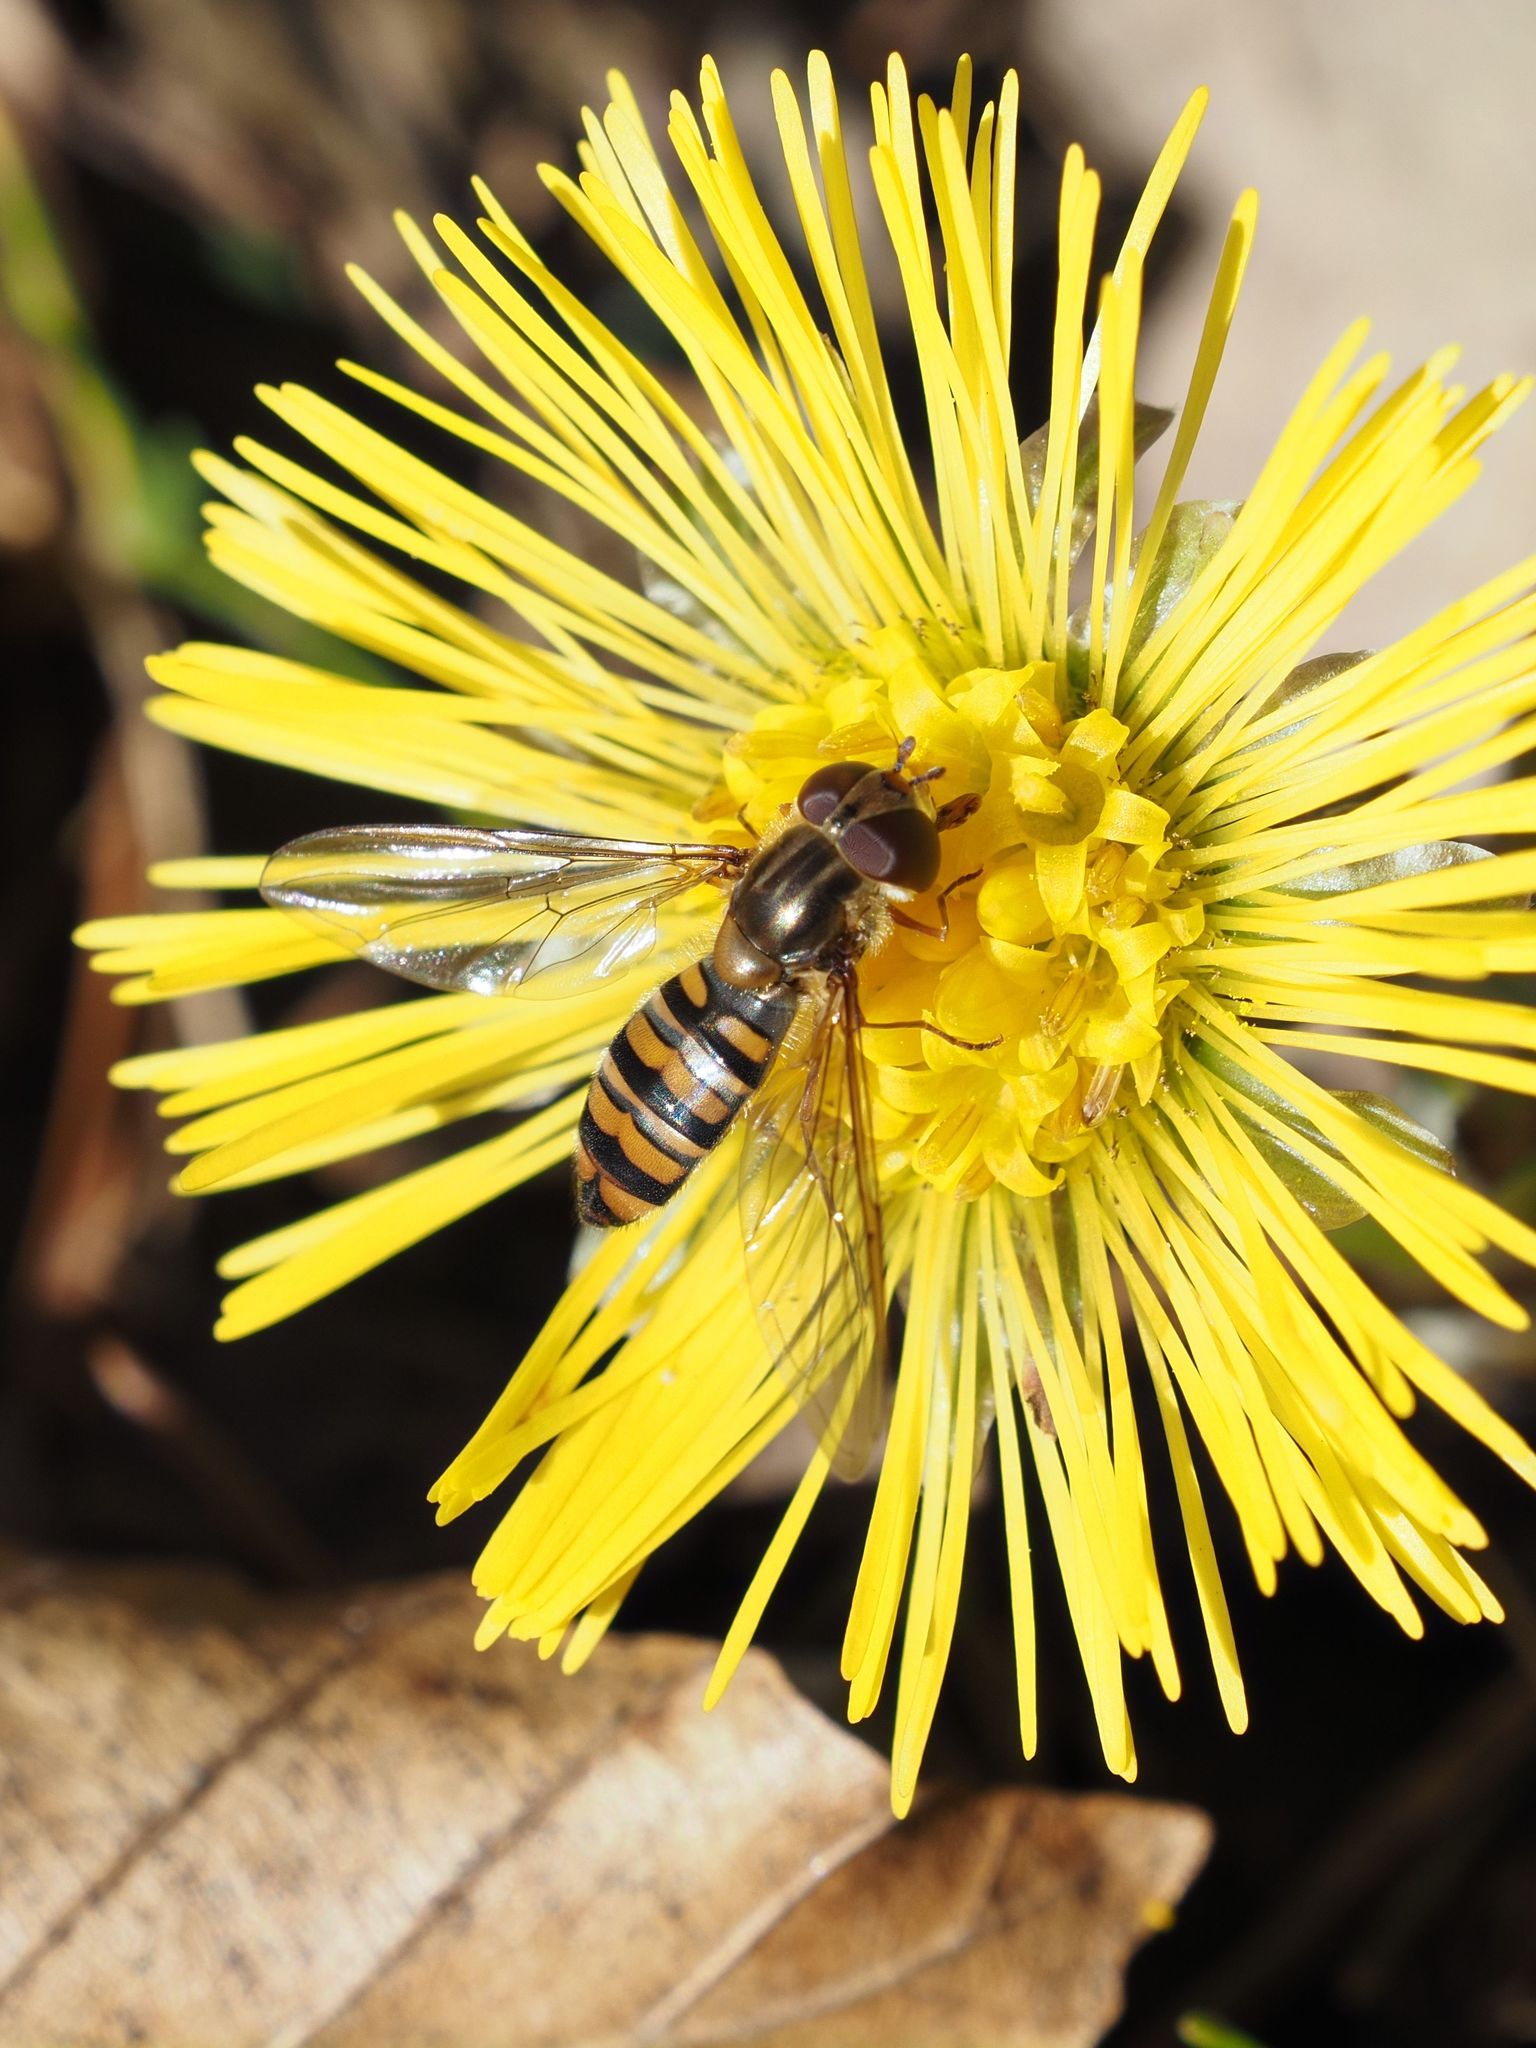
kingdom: Animalia
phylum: Arthropoda
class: Insecta
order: Diptera
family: Syrphidae
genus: Episyrphus
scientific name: Episyrphus balteatus
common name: Marmalade hoverfly
